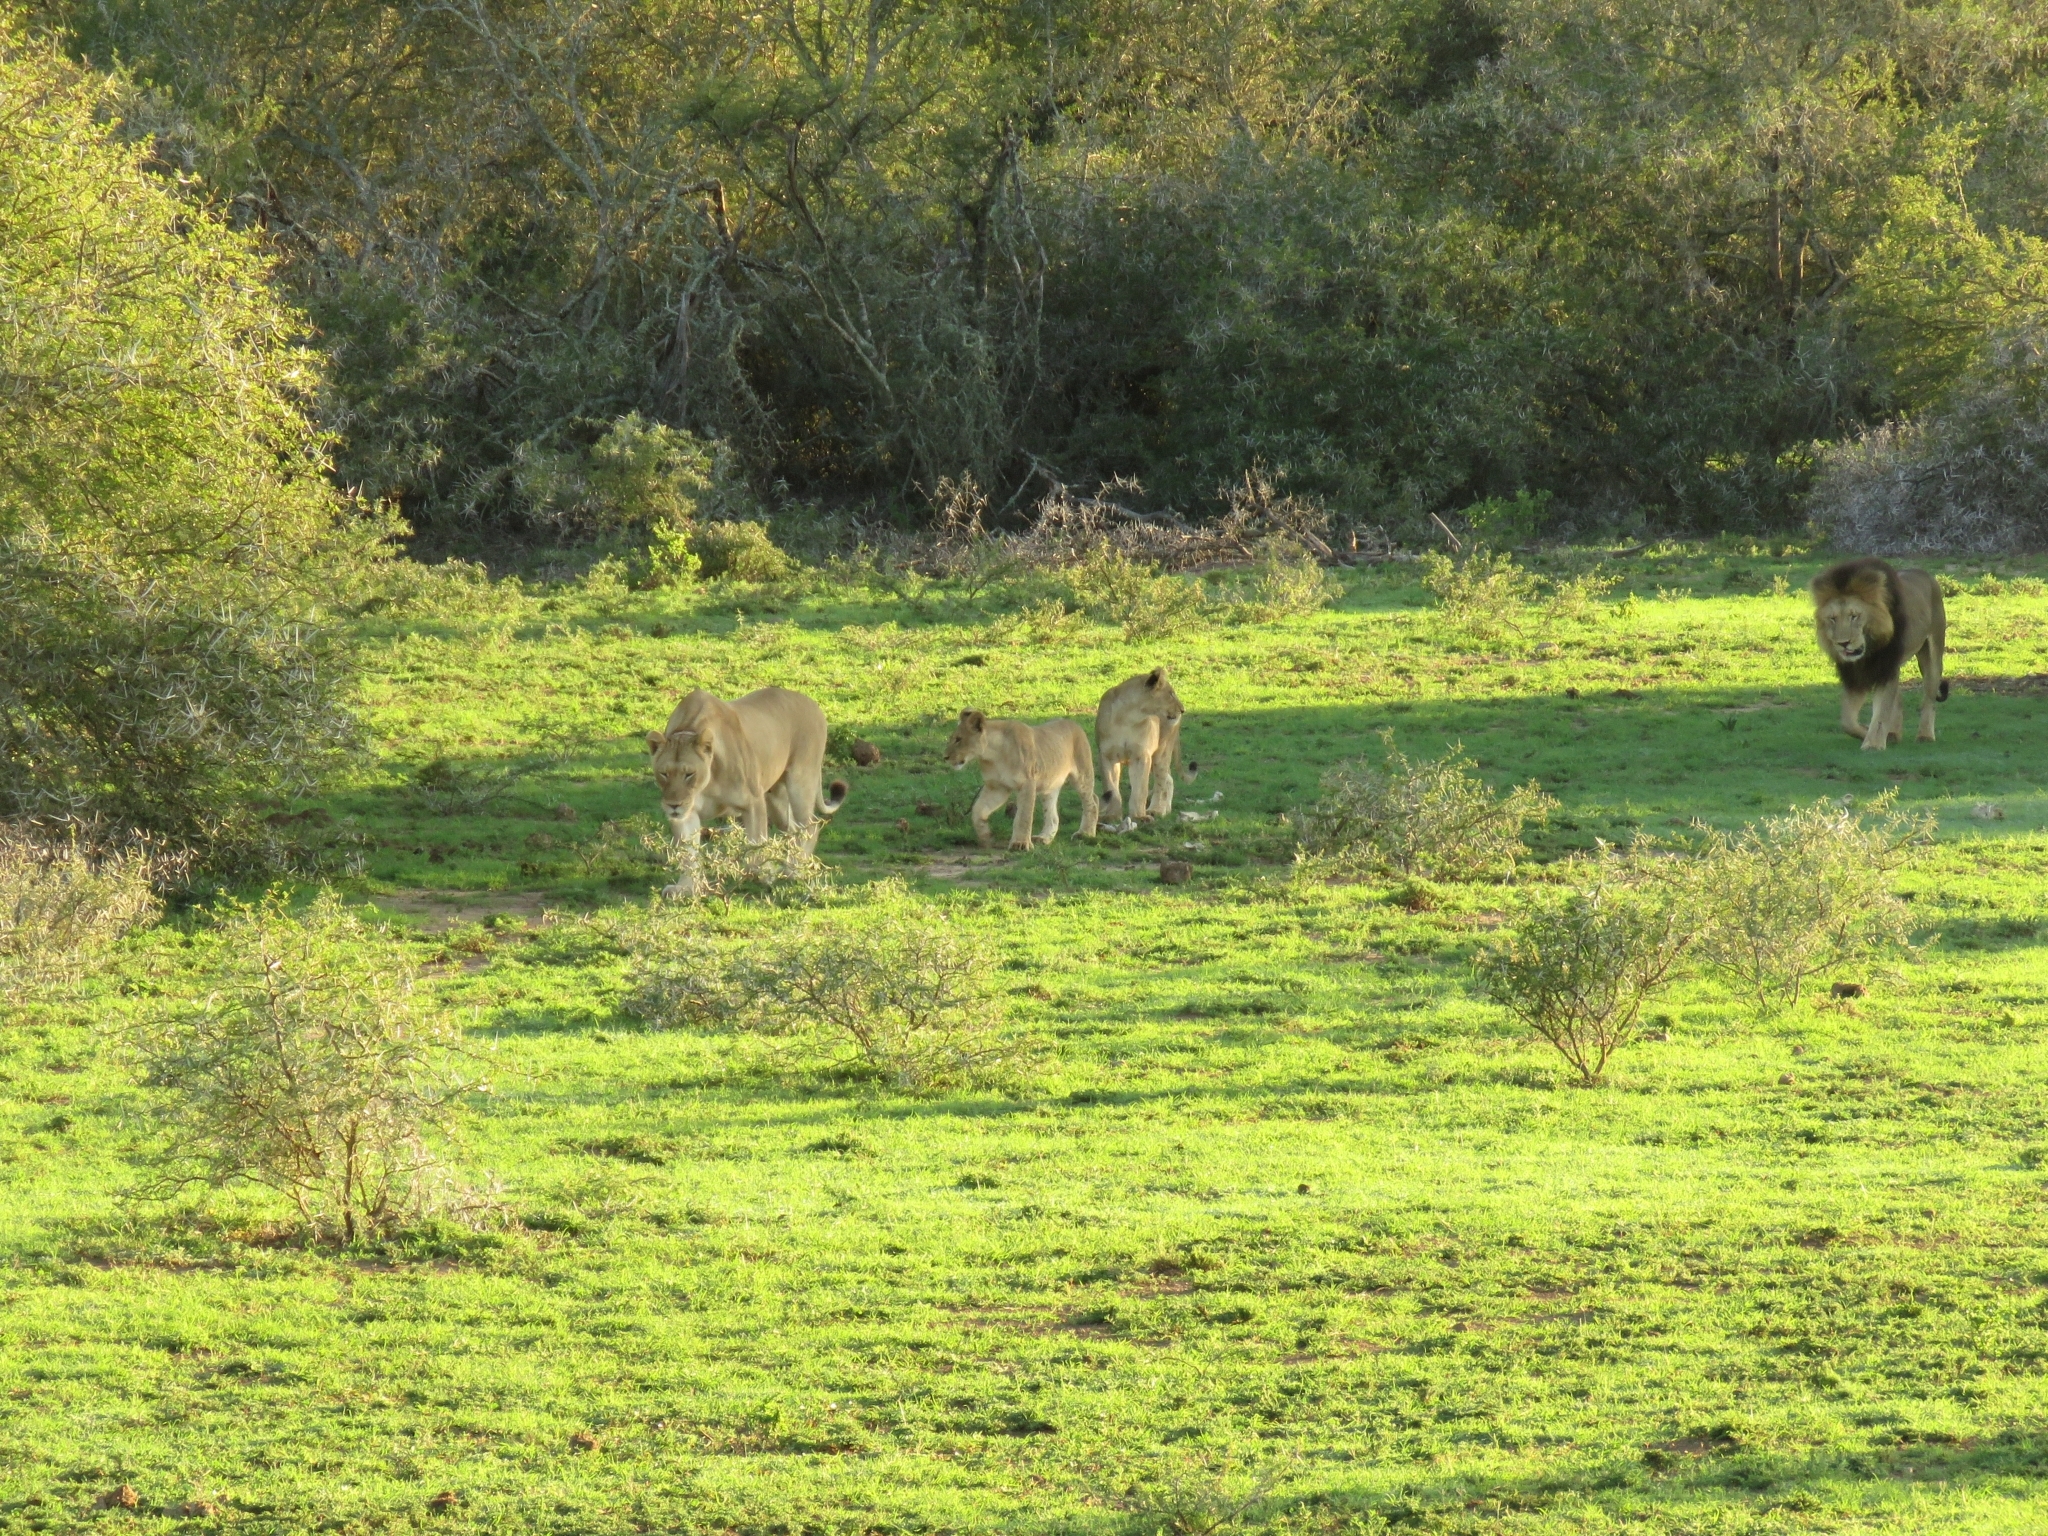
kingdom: Animalia
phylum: Chordata
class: Mammalia
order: Carnivora
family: Felidae
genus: Panthera
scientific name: Panthera leo
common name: Lion
